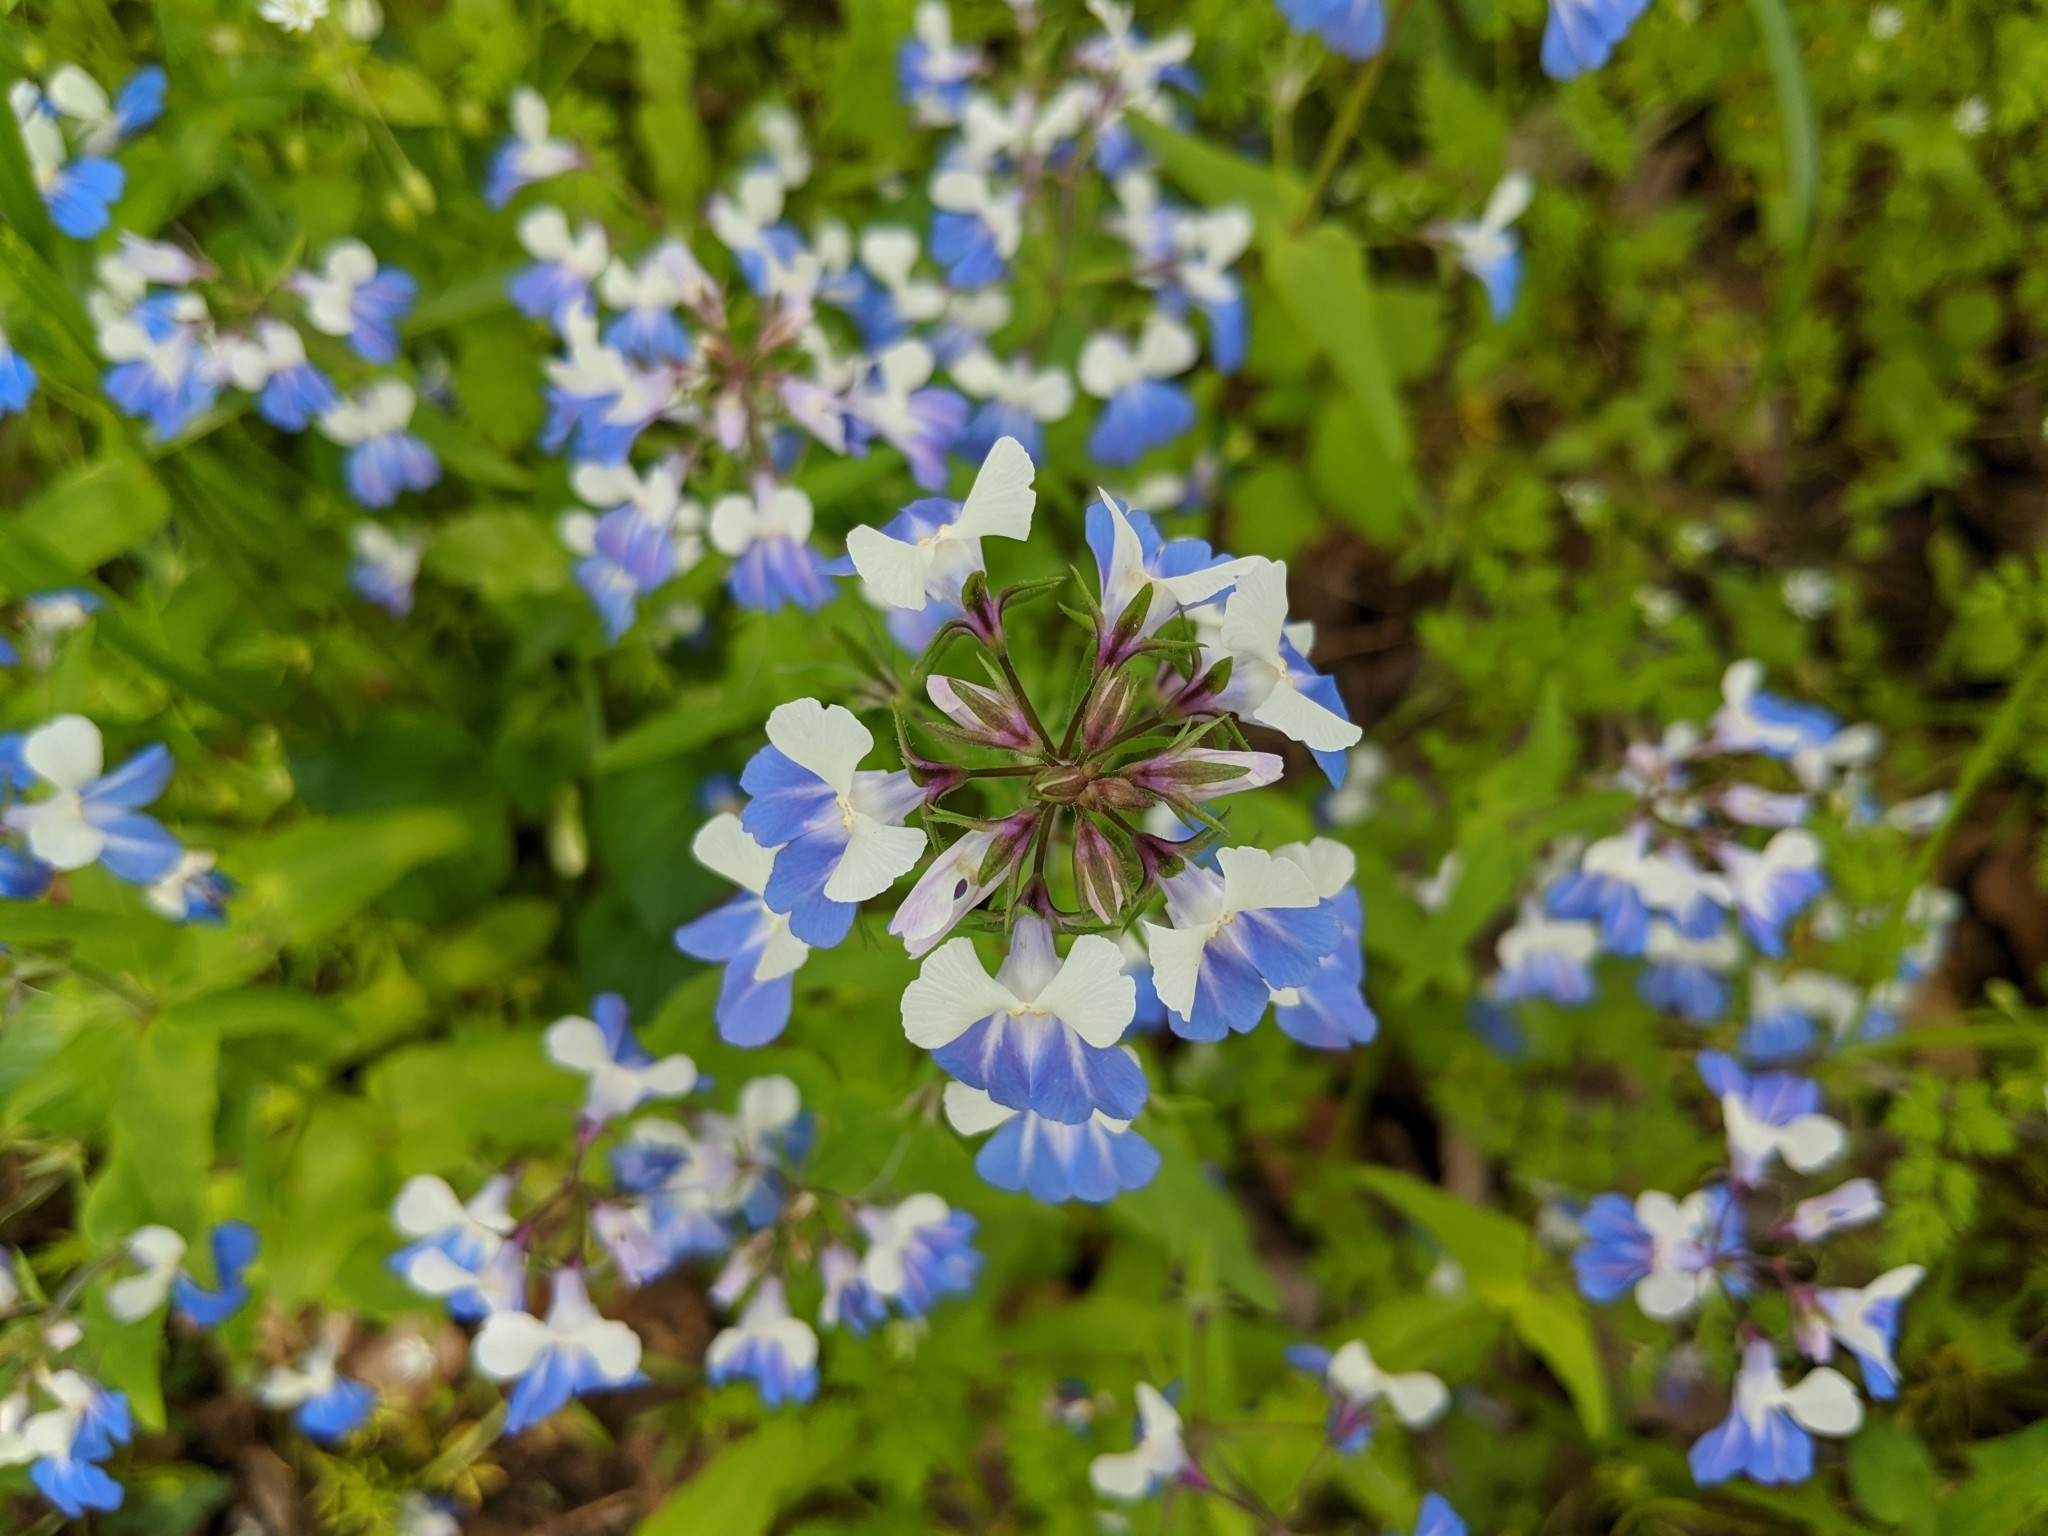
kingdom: Plantae
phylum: Tracheophyta
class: Magnoliopsida
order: Lamiales
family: Plantaginaceae
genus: Collinsia
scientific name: Collinsia verna
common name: Broad-leaved collinsia
